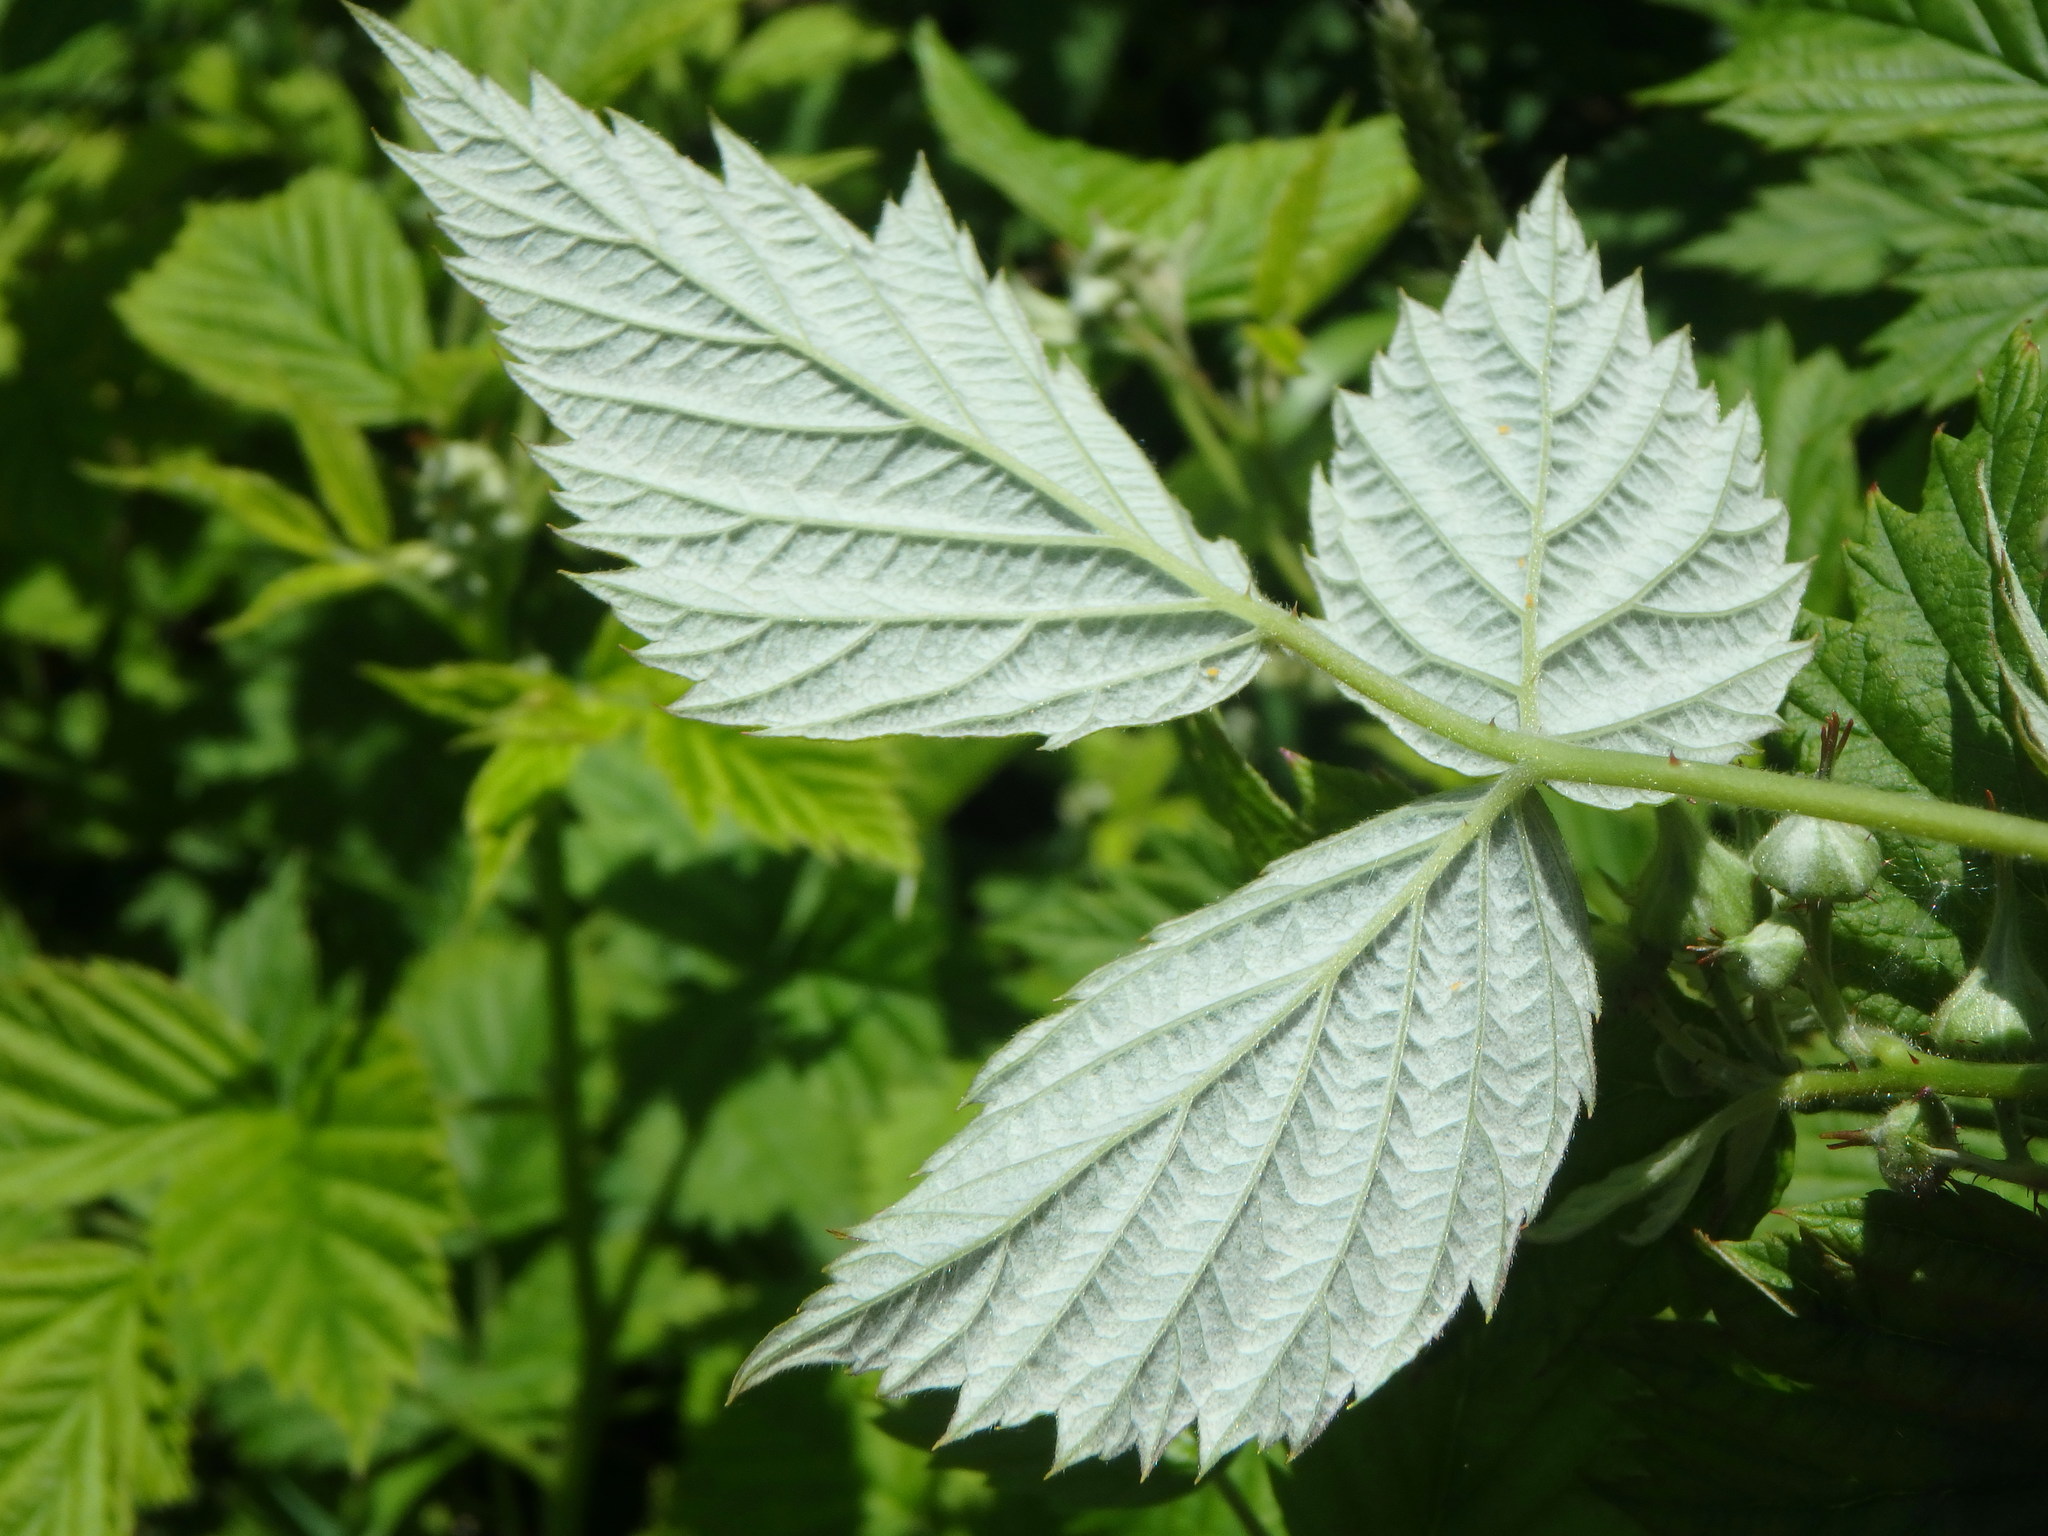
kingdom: Plantae
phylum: Tracheophyta
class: Magnoliopsida
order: Rosales
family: Rosaceae
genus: Rubus
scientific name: Rubus idaeus
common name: Raspberry
